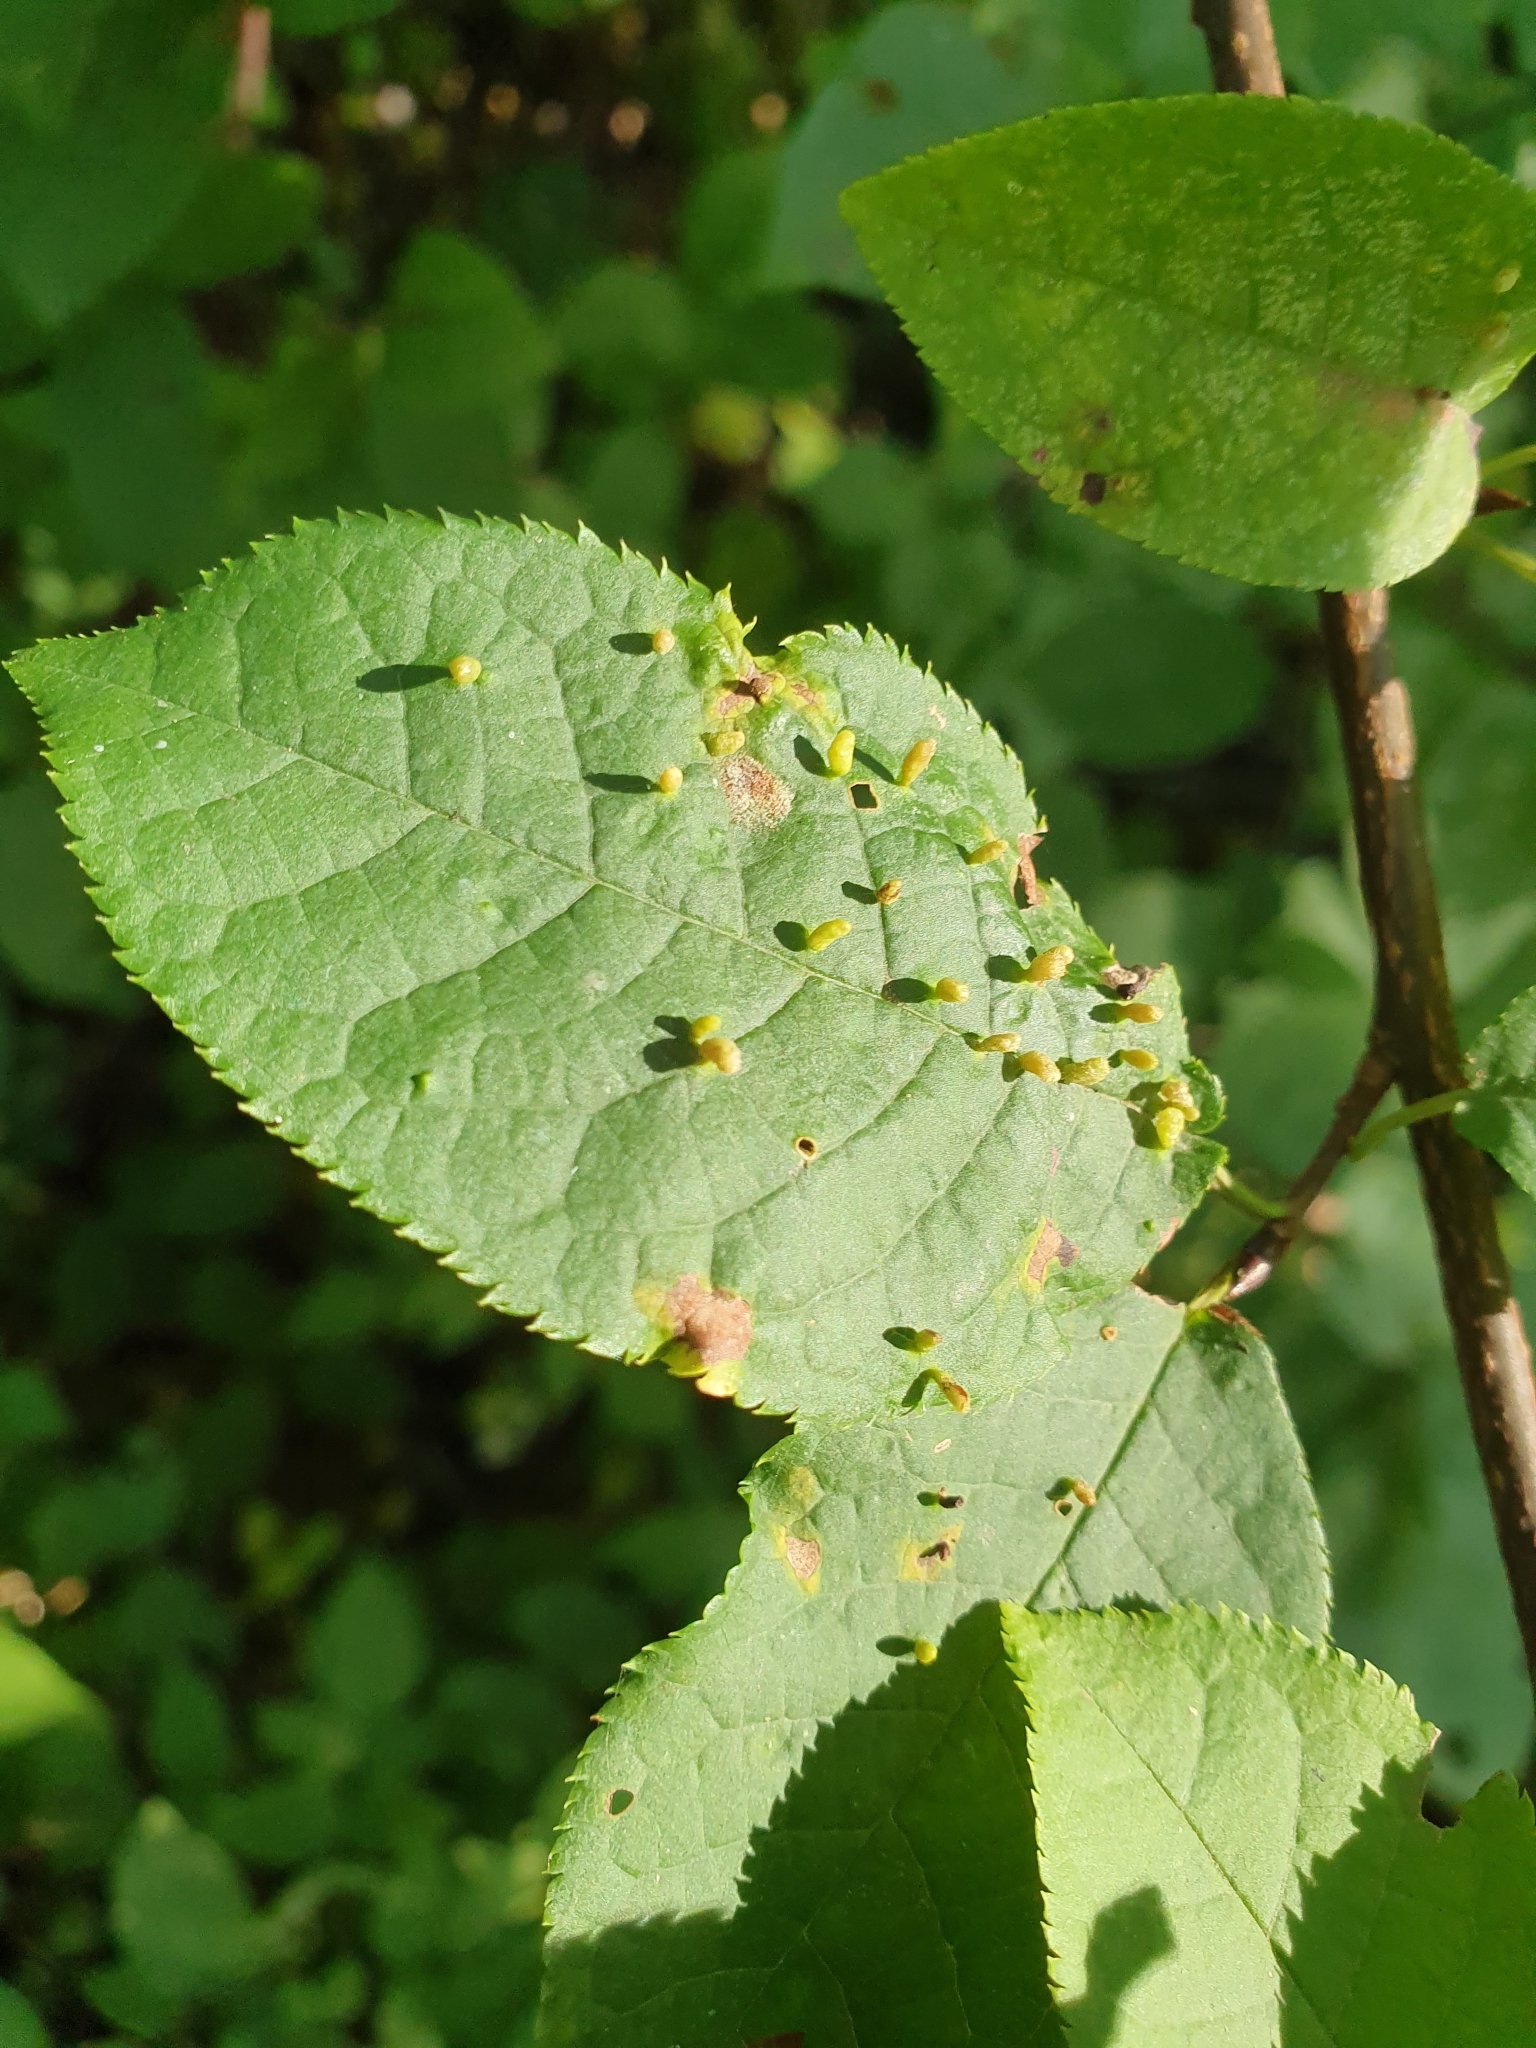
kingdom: Animalia
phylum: Arthropoda
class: Arachnida
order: Trombidiformes
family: Eriophyidae
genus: Phyllocoptes
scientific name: Phyllocoptes eupadi
